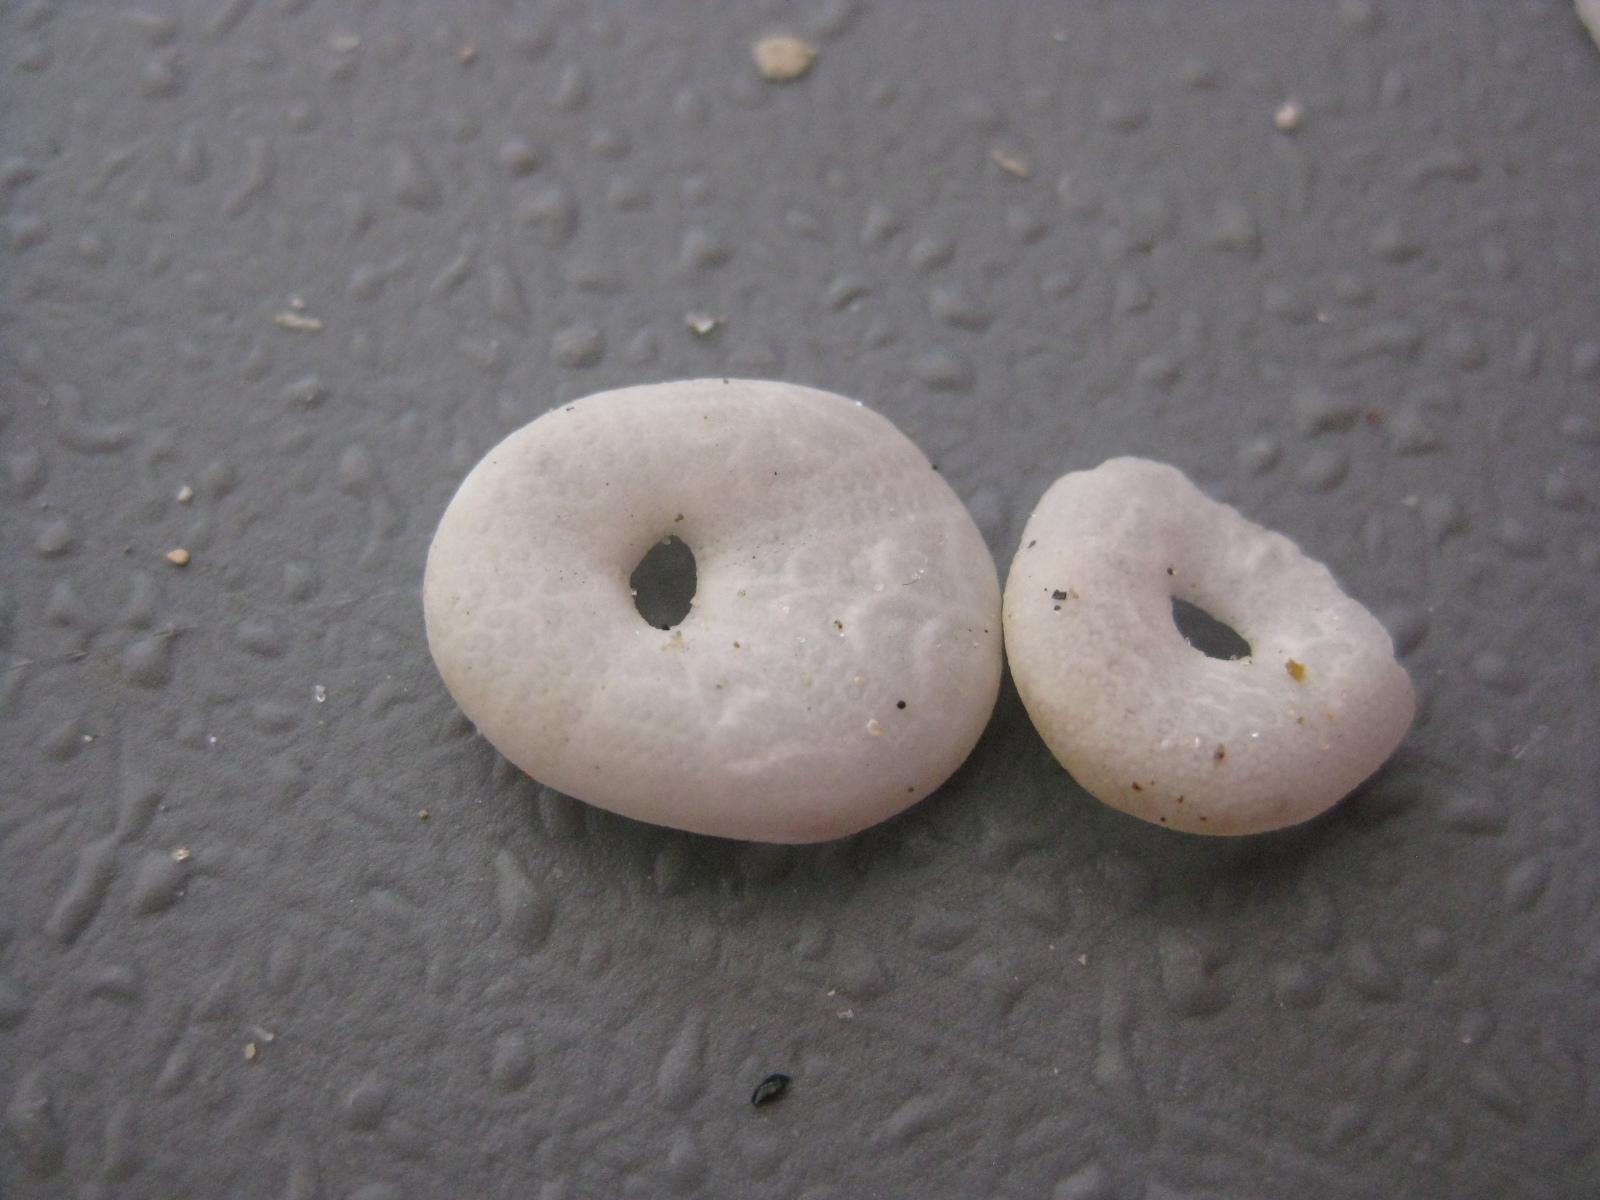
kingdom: Animalia
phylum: Echinodermata
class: Echinoidea
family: Apatopygidae
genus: Apatopygus
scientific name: Apatopygus recens
